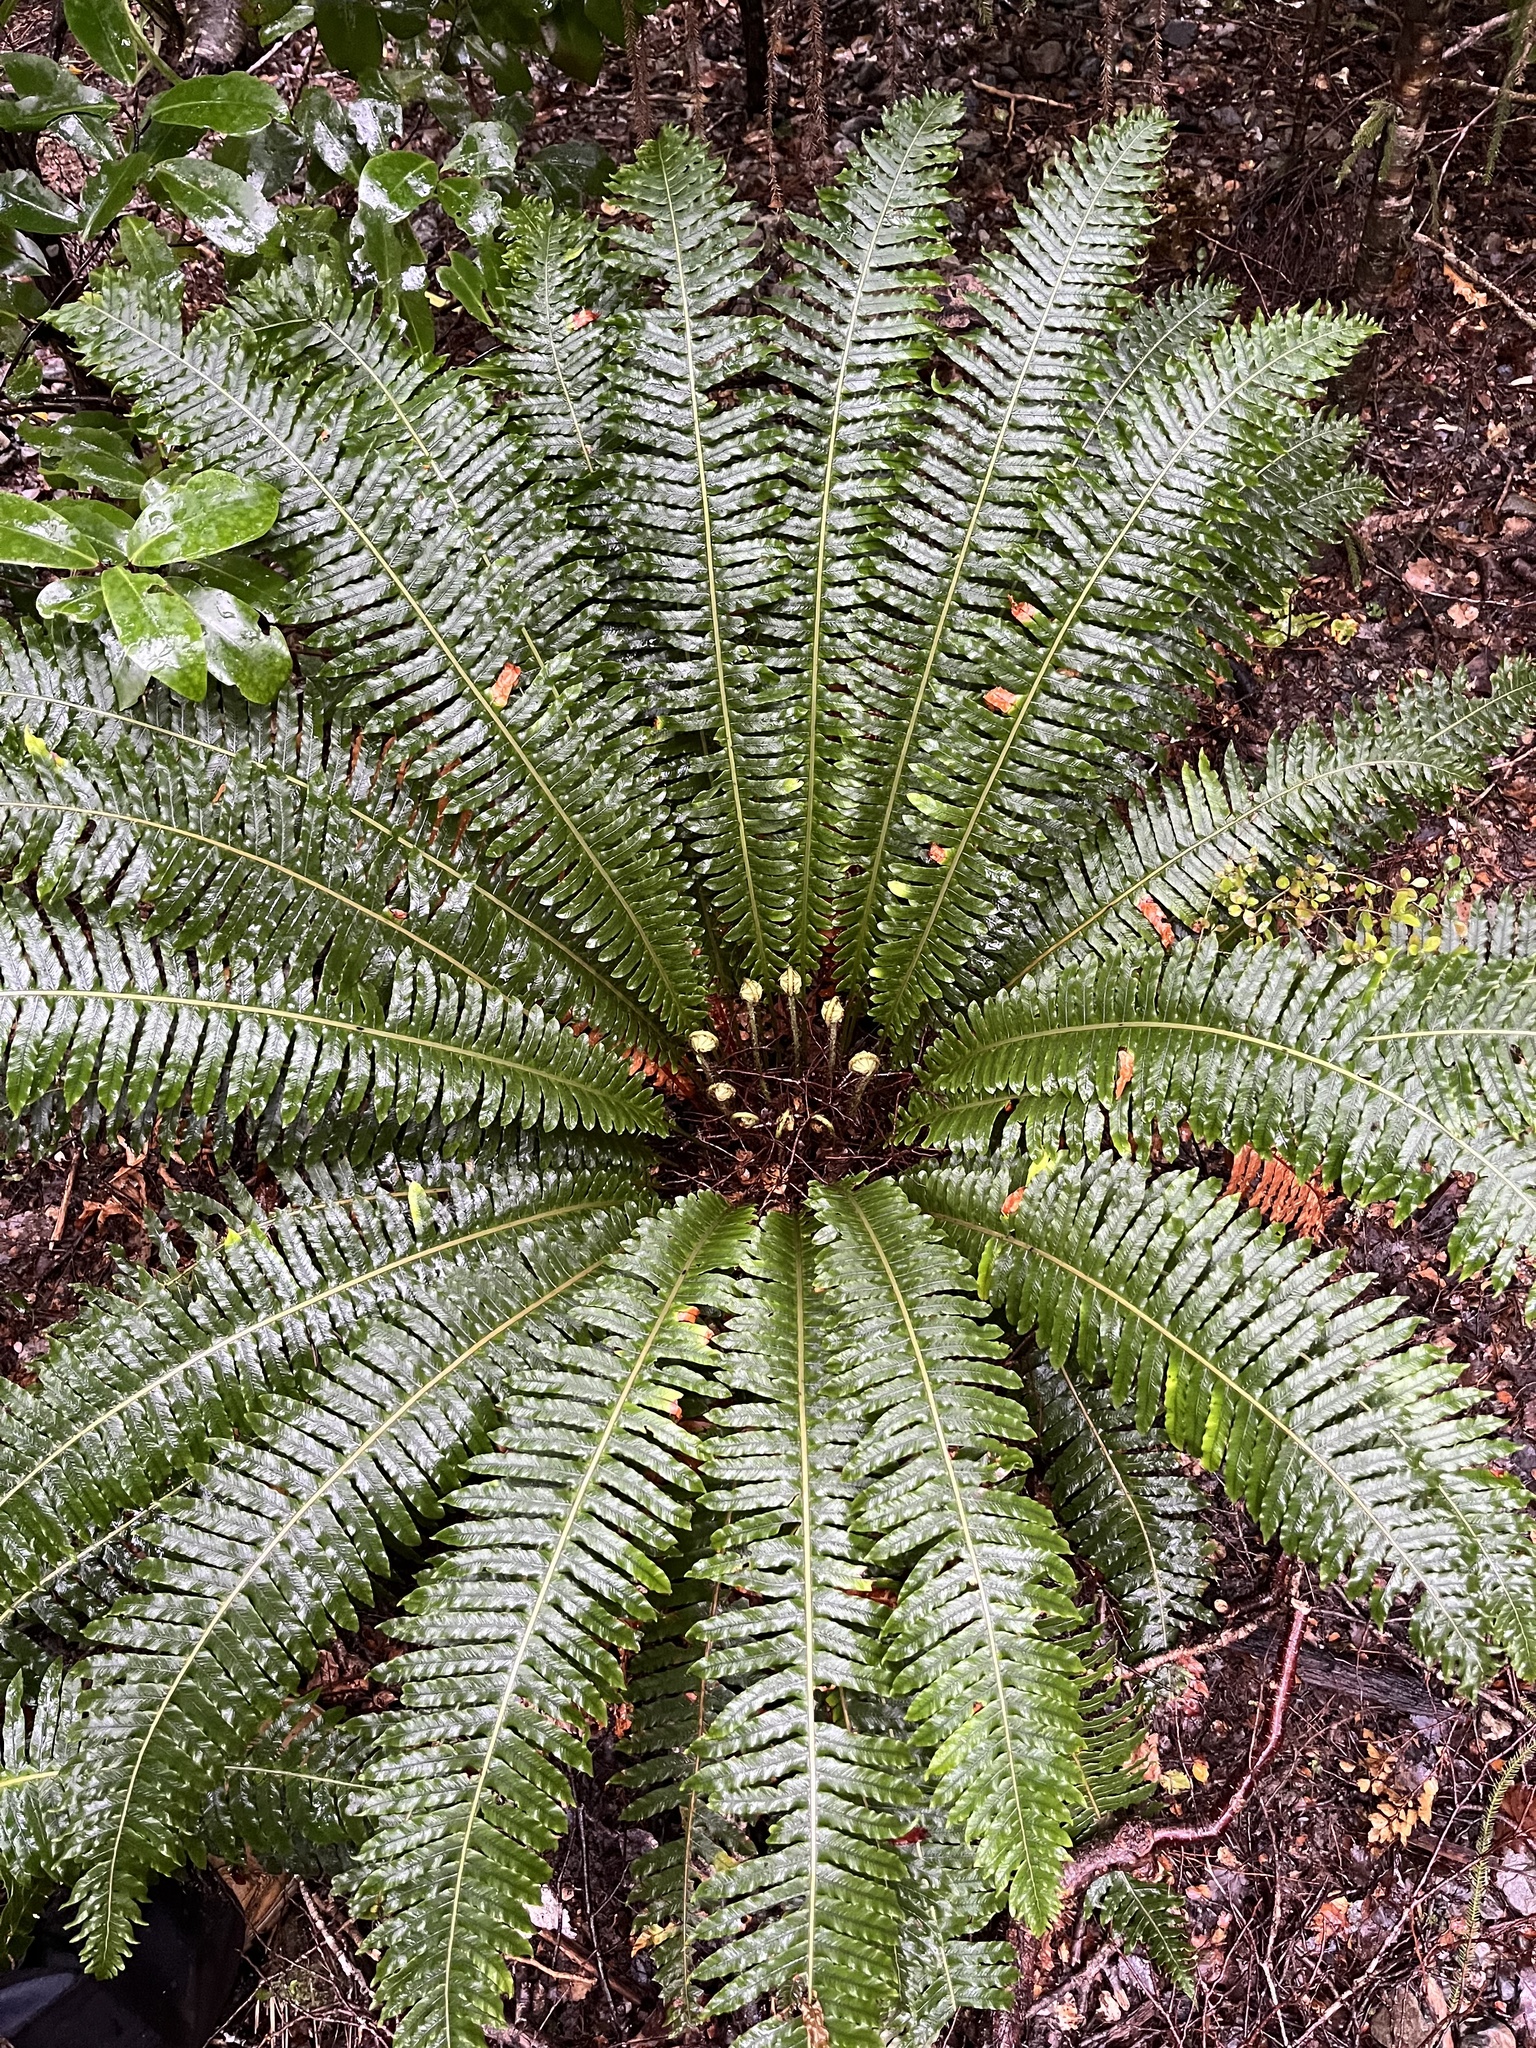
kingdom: Plantae
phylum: Tracheophyta
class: Polypodiopsida
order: Polypodiales
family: Blechnaceae
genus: Lomaria
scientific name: Lomaria discolor
